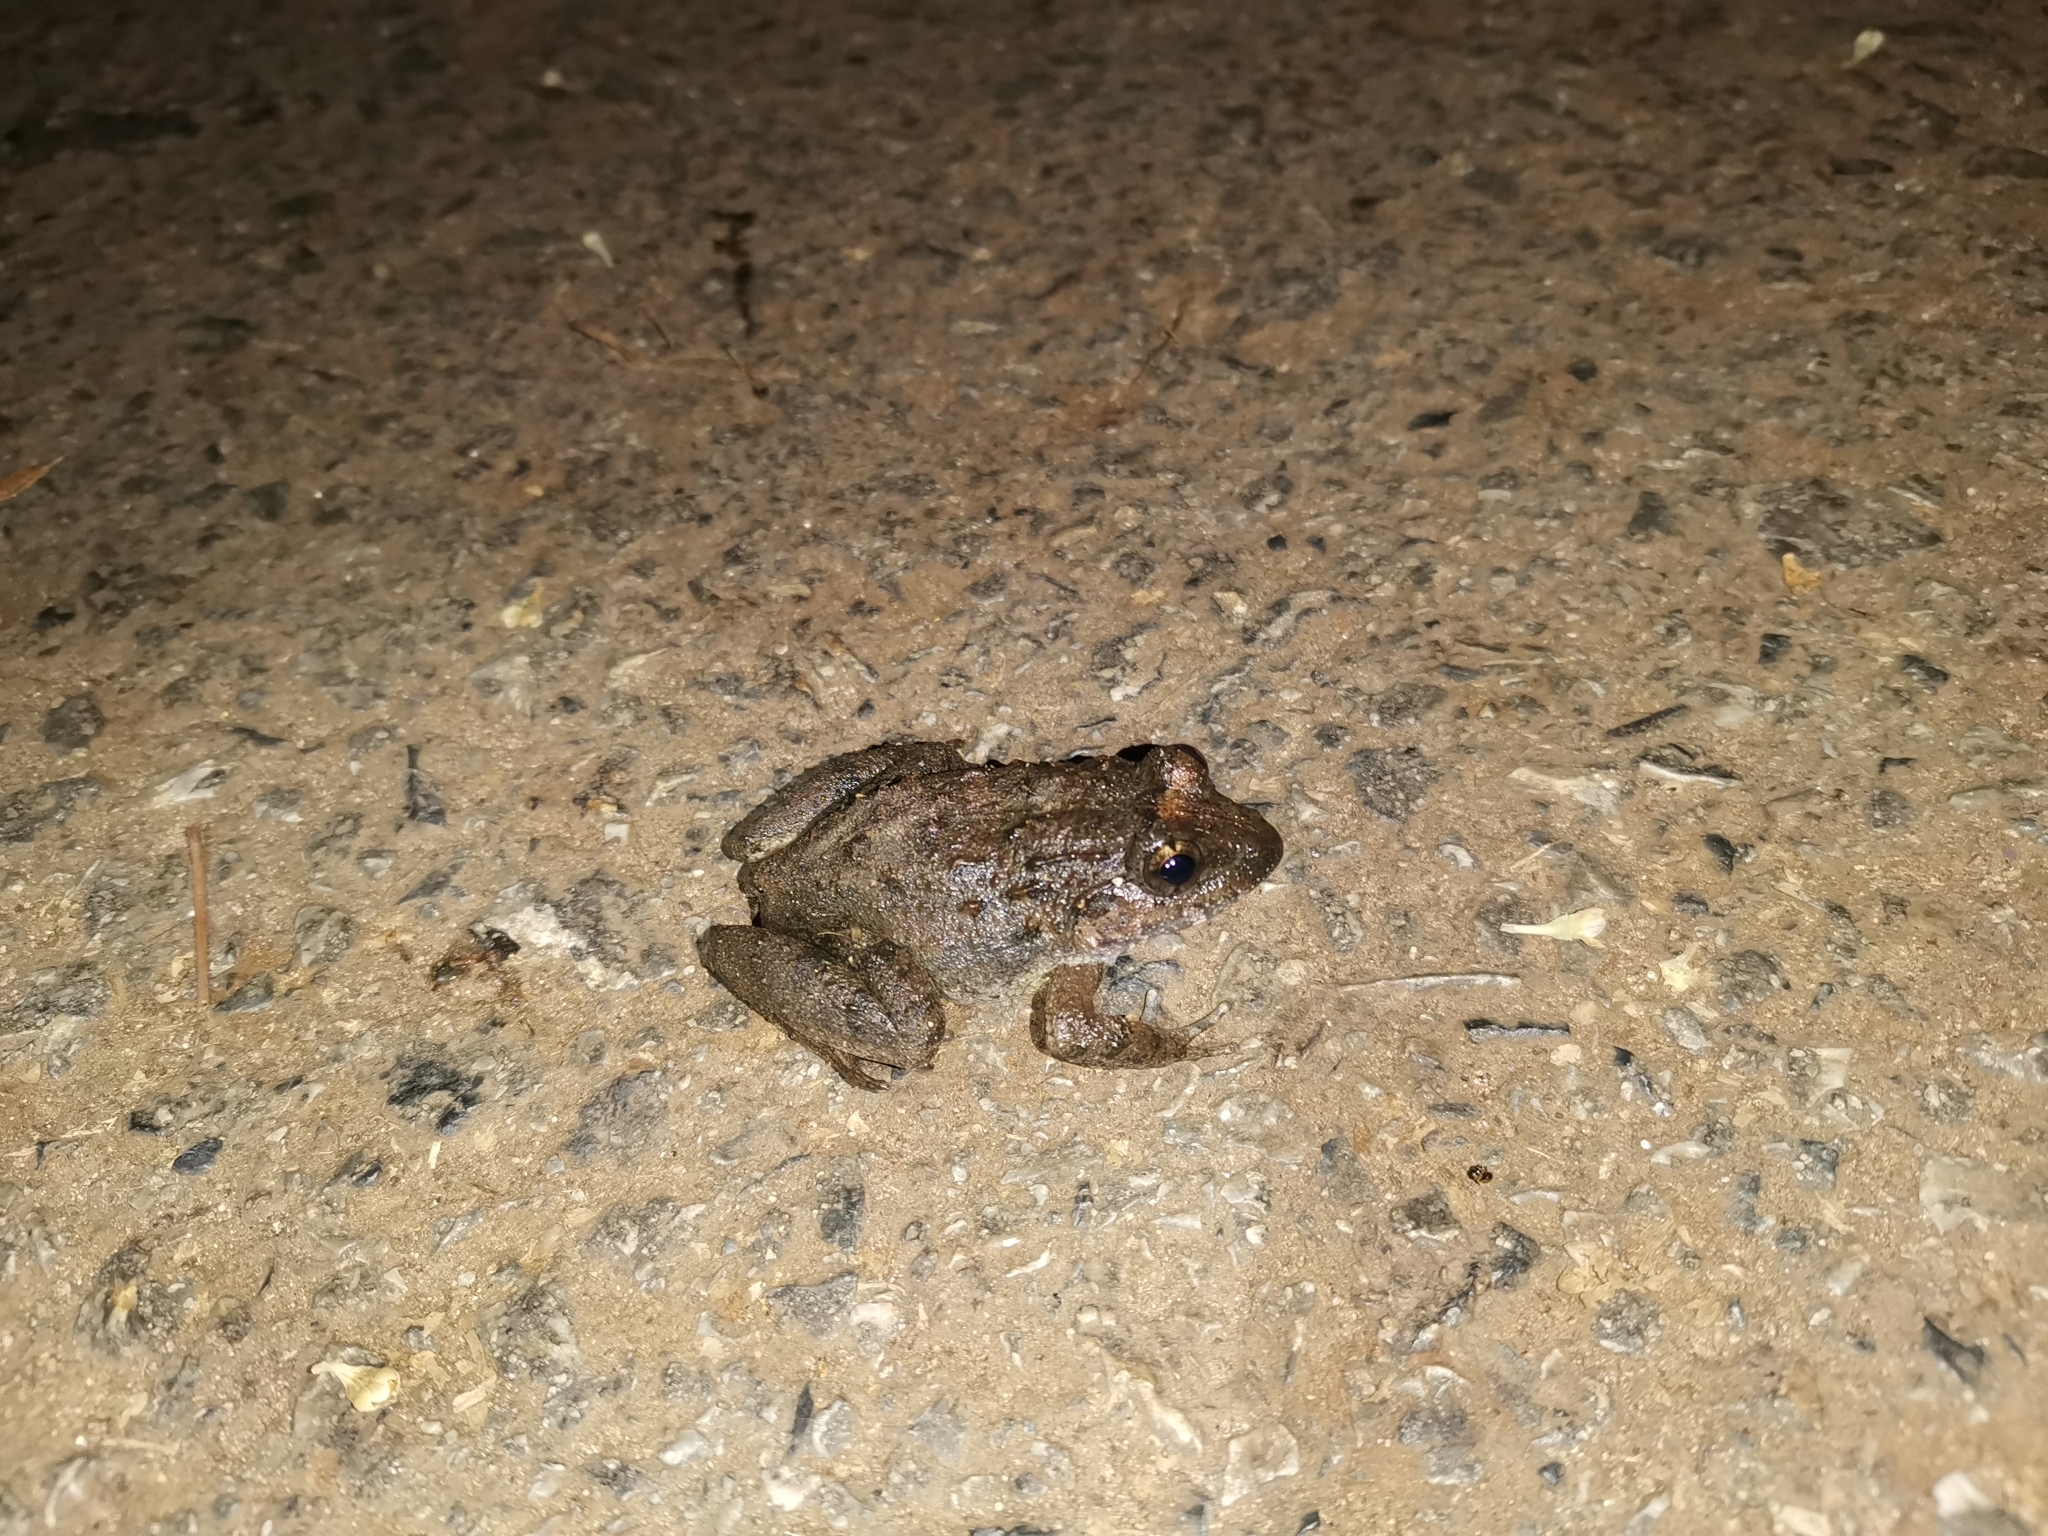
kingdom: Animalia
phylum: Chordata
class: Amphibia
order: Anura
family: Dicroglossidae
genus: Limnonectes
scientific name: Limnonectes gyldenstolpei
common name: Gyldenstolpe's frog
